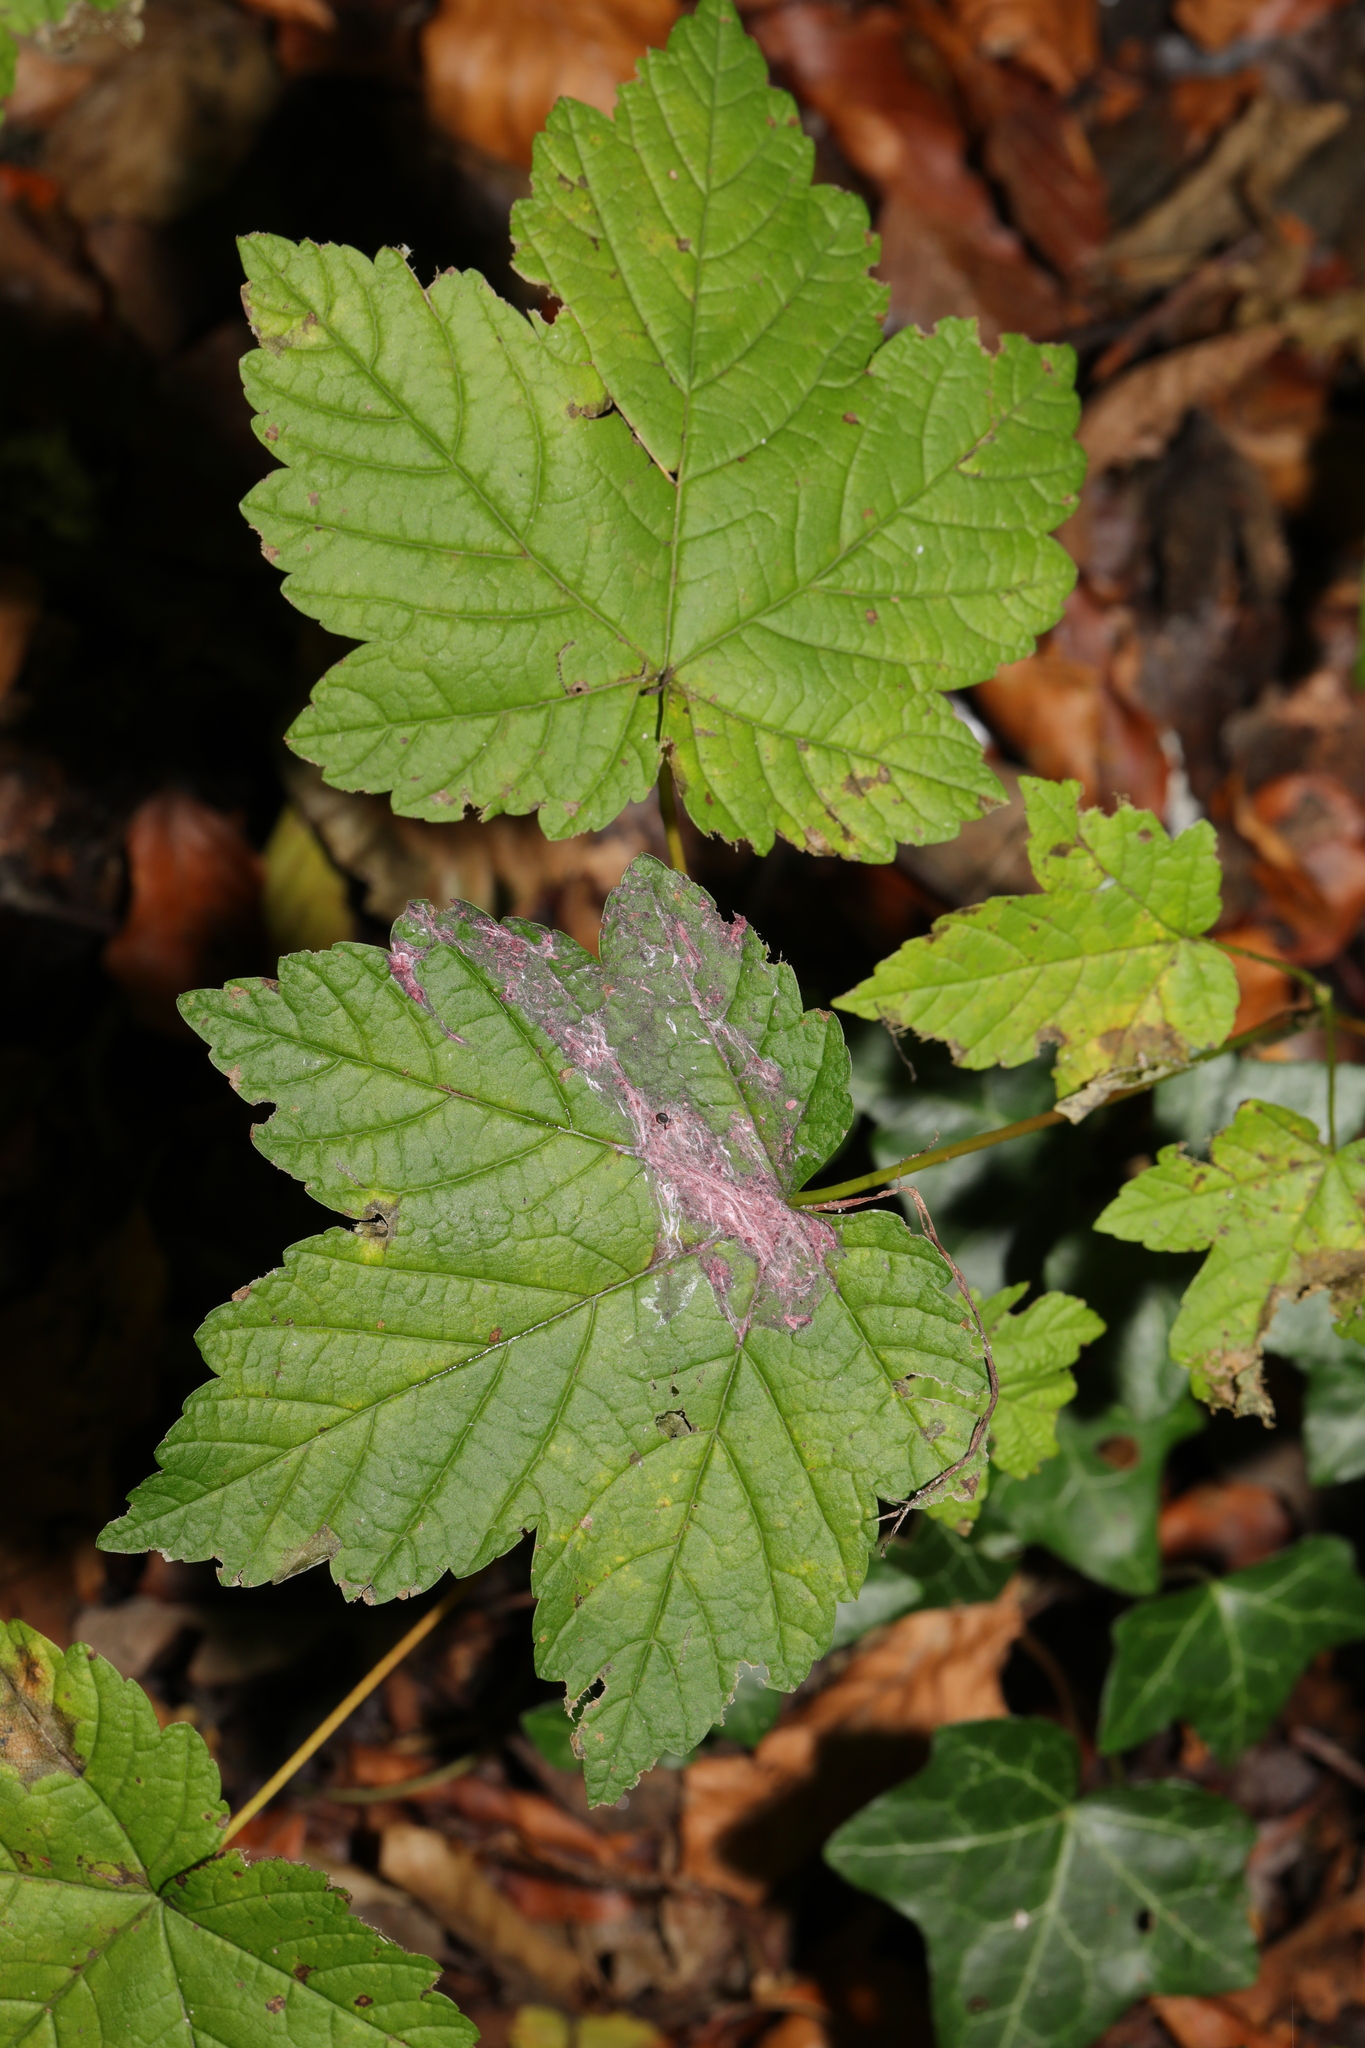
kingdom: Plantae
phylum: Tracheophyta
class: Magnoliopsida
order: Sapindales
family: Sapindaceae
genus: Acer
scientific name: Acer pseudoplatanus
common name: Sycamore
